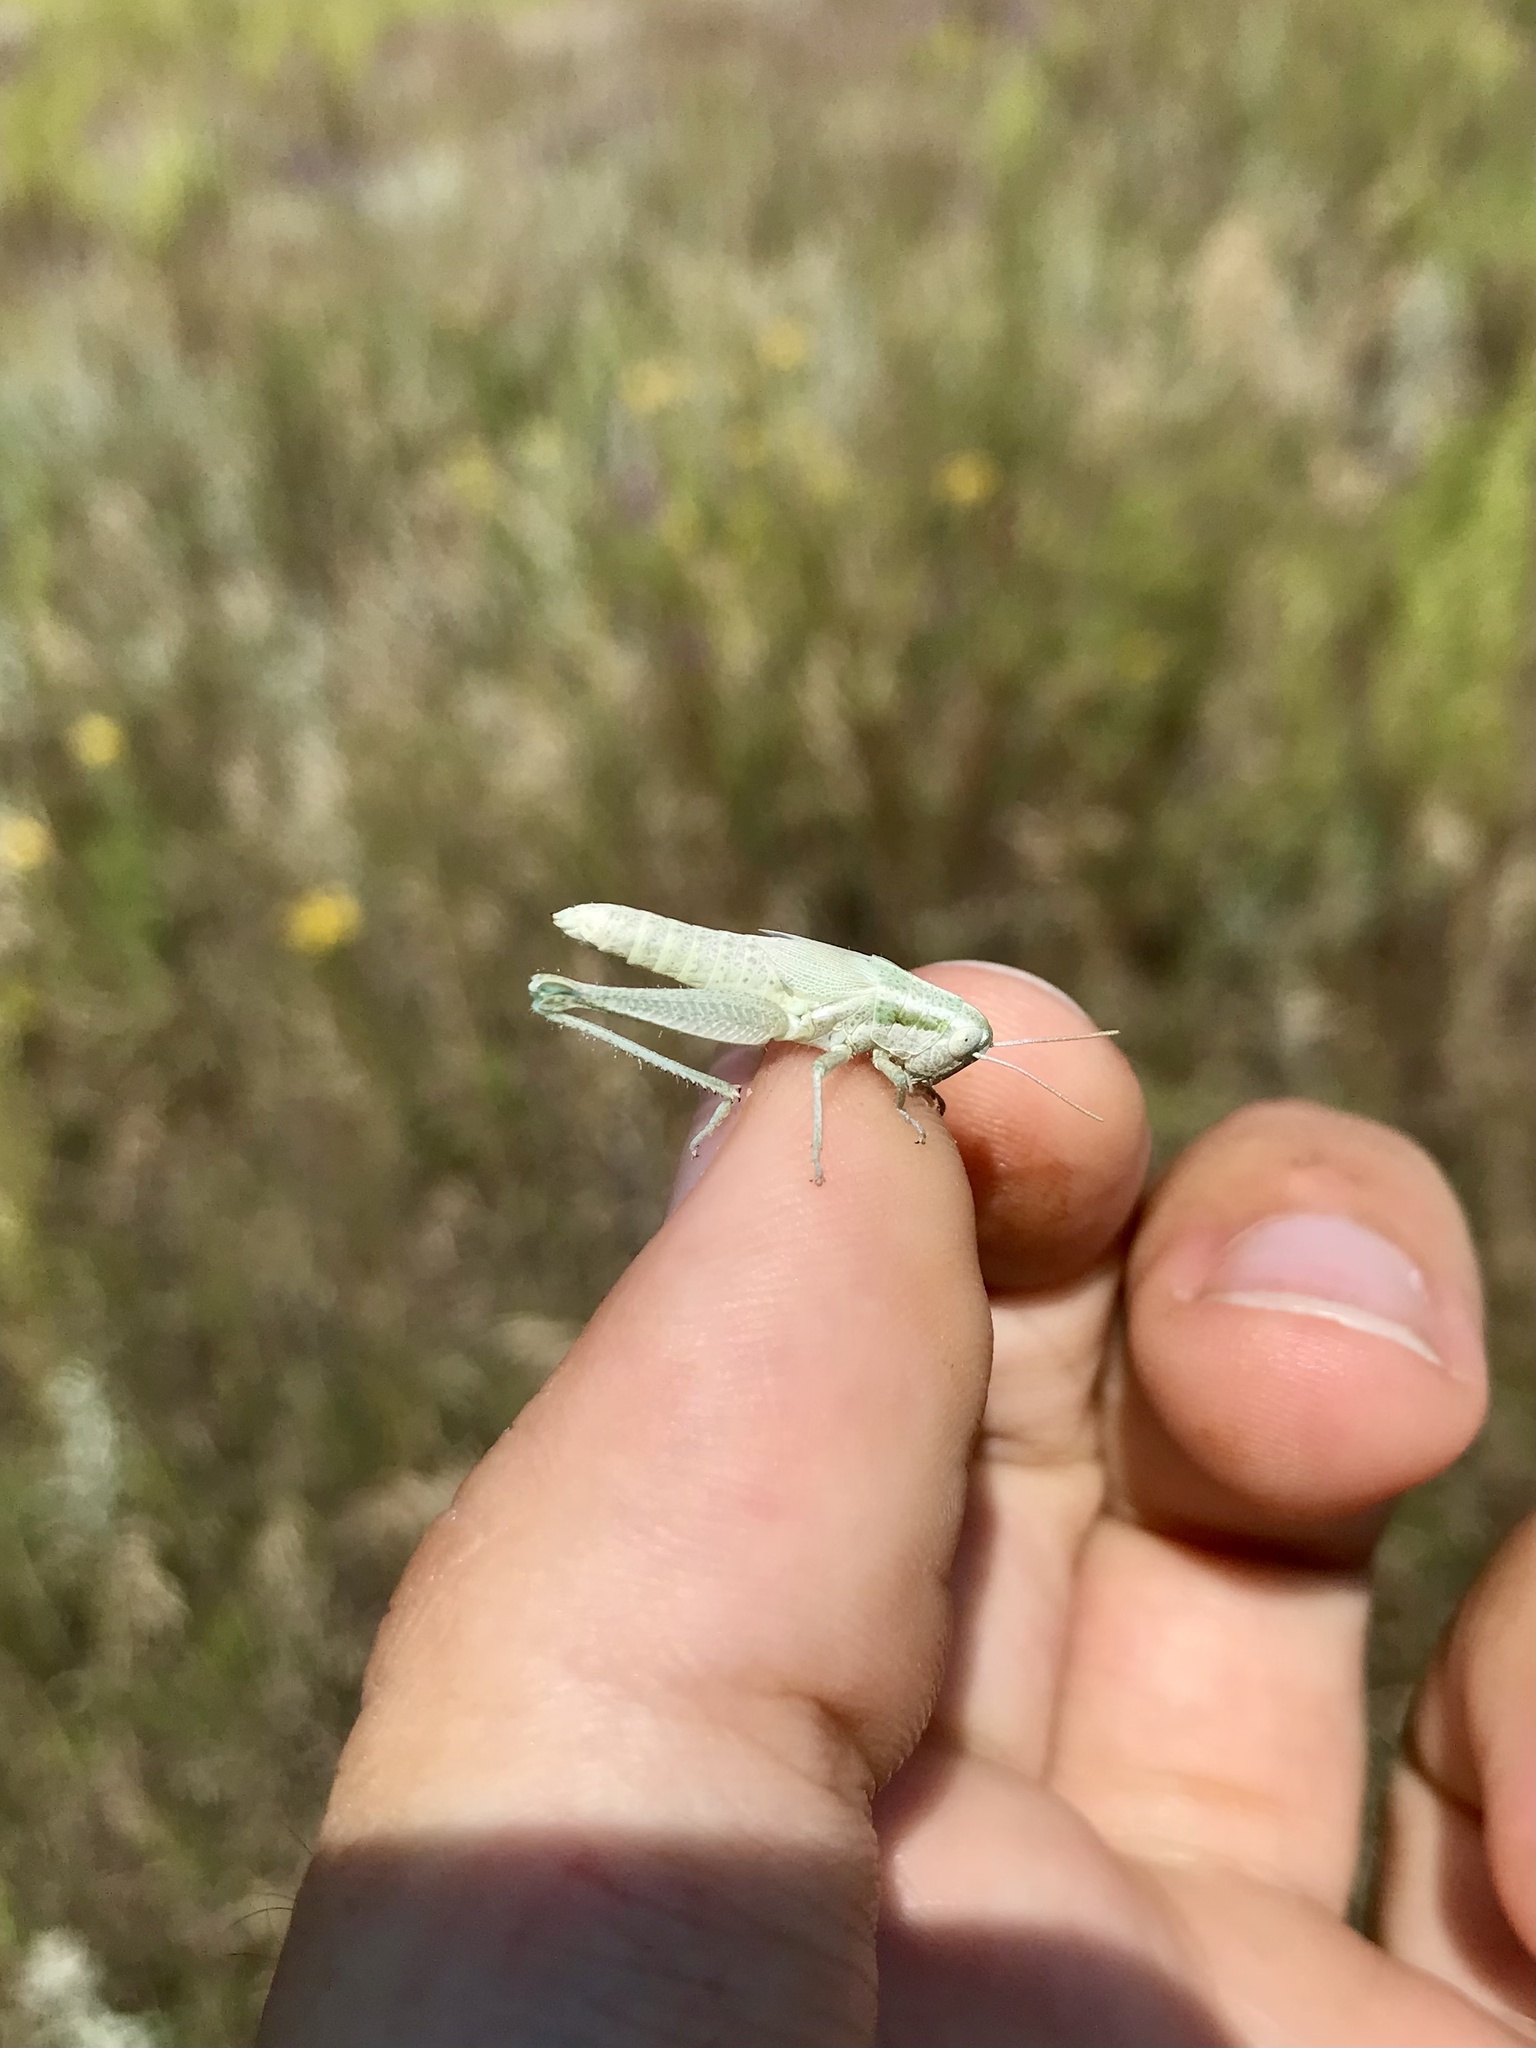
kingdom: Animalia
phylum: Arthropoda
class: Insecta
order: Orthoptera
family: Acrididae
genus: Hypochlora
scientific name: Hypochlora alba
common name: Cudweed grasshopper
